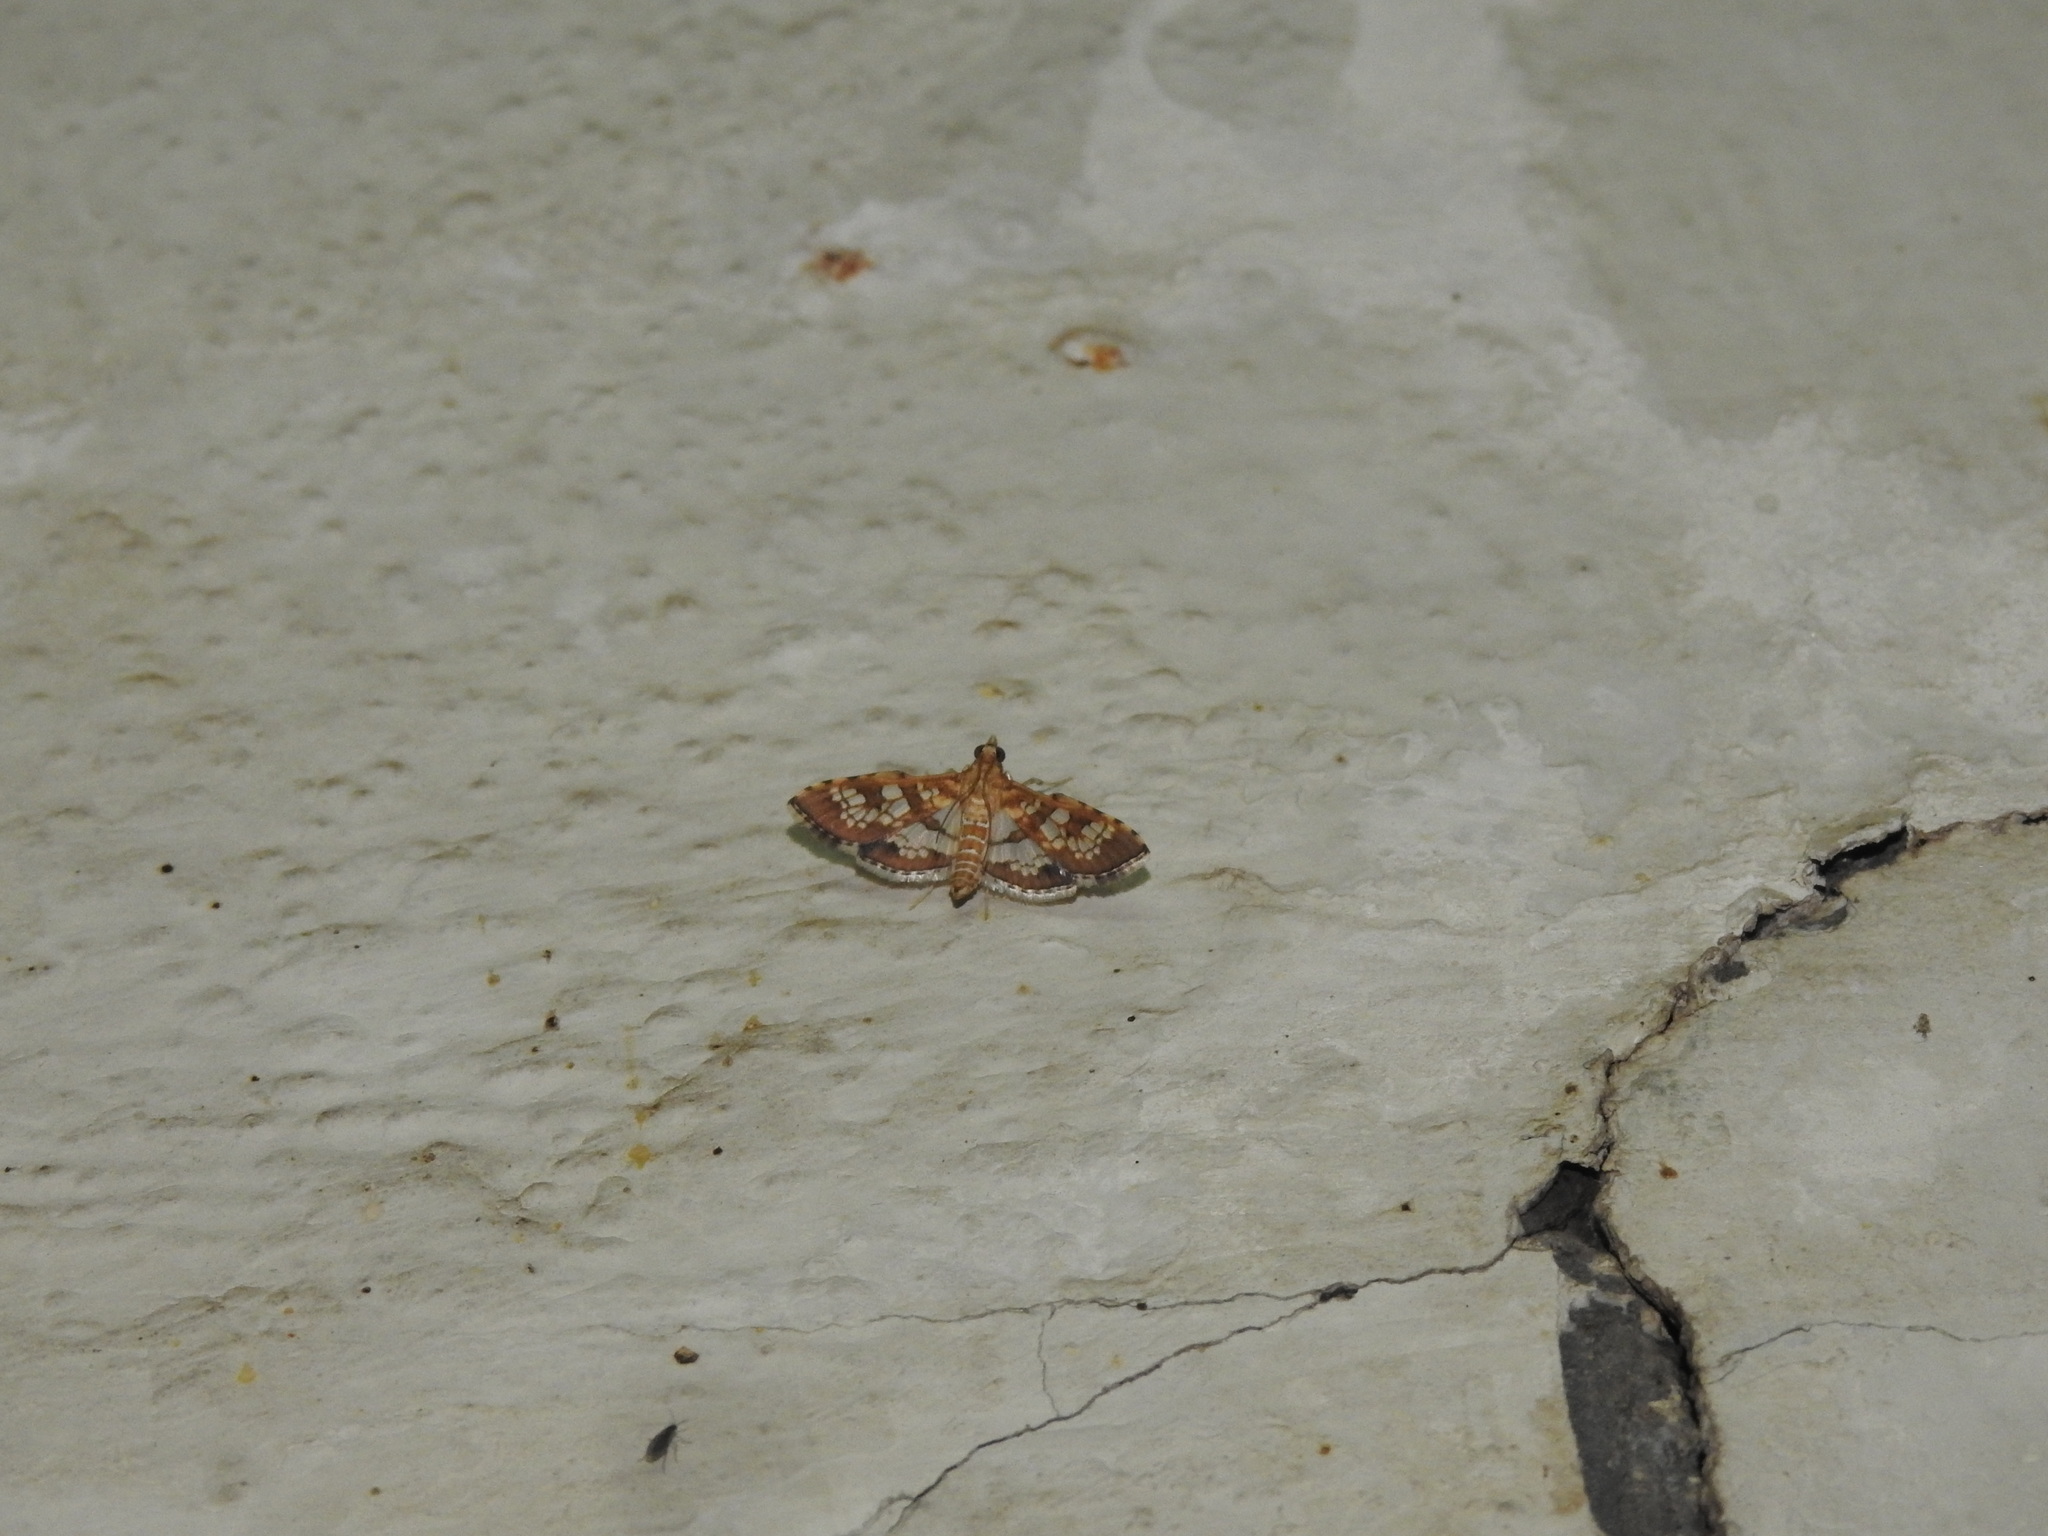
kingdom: Animalia
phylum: Arthropoda
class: Insecta
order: Lepidoptera
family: Crambidae
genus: Sameodes
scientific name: Sameodes cancellalis
